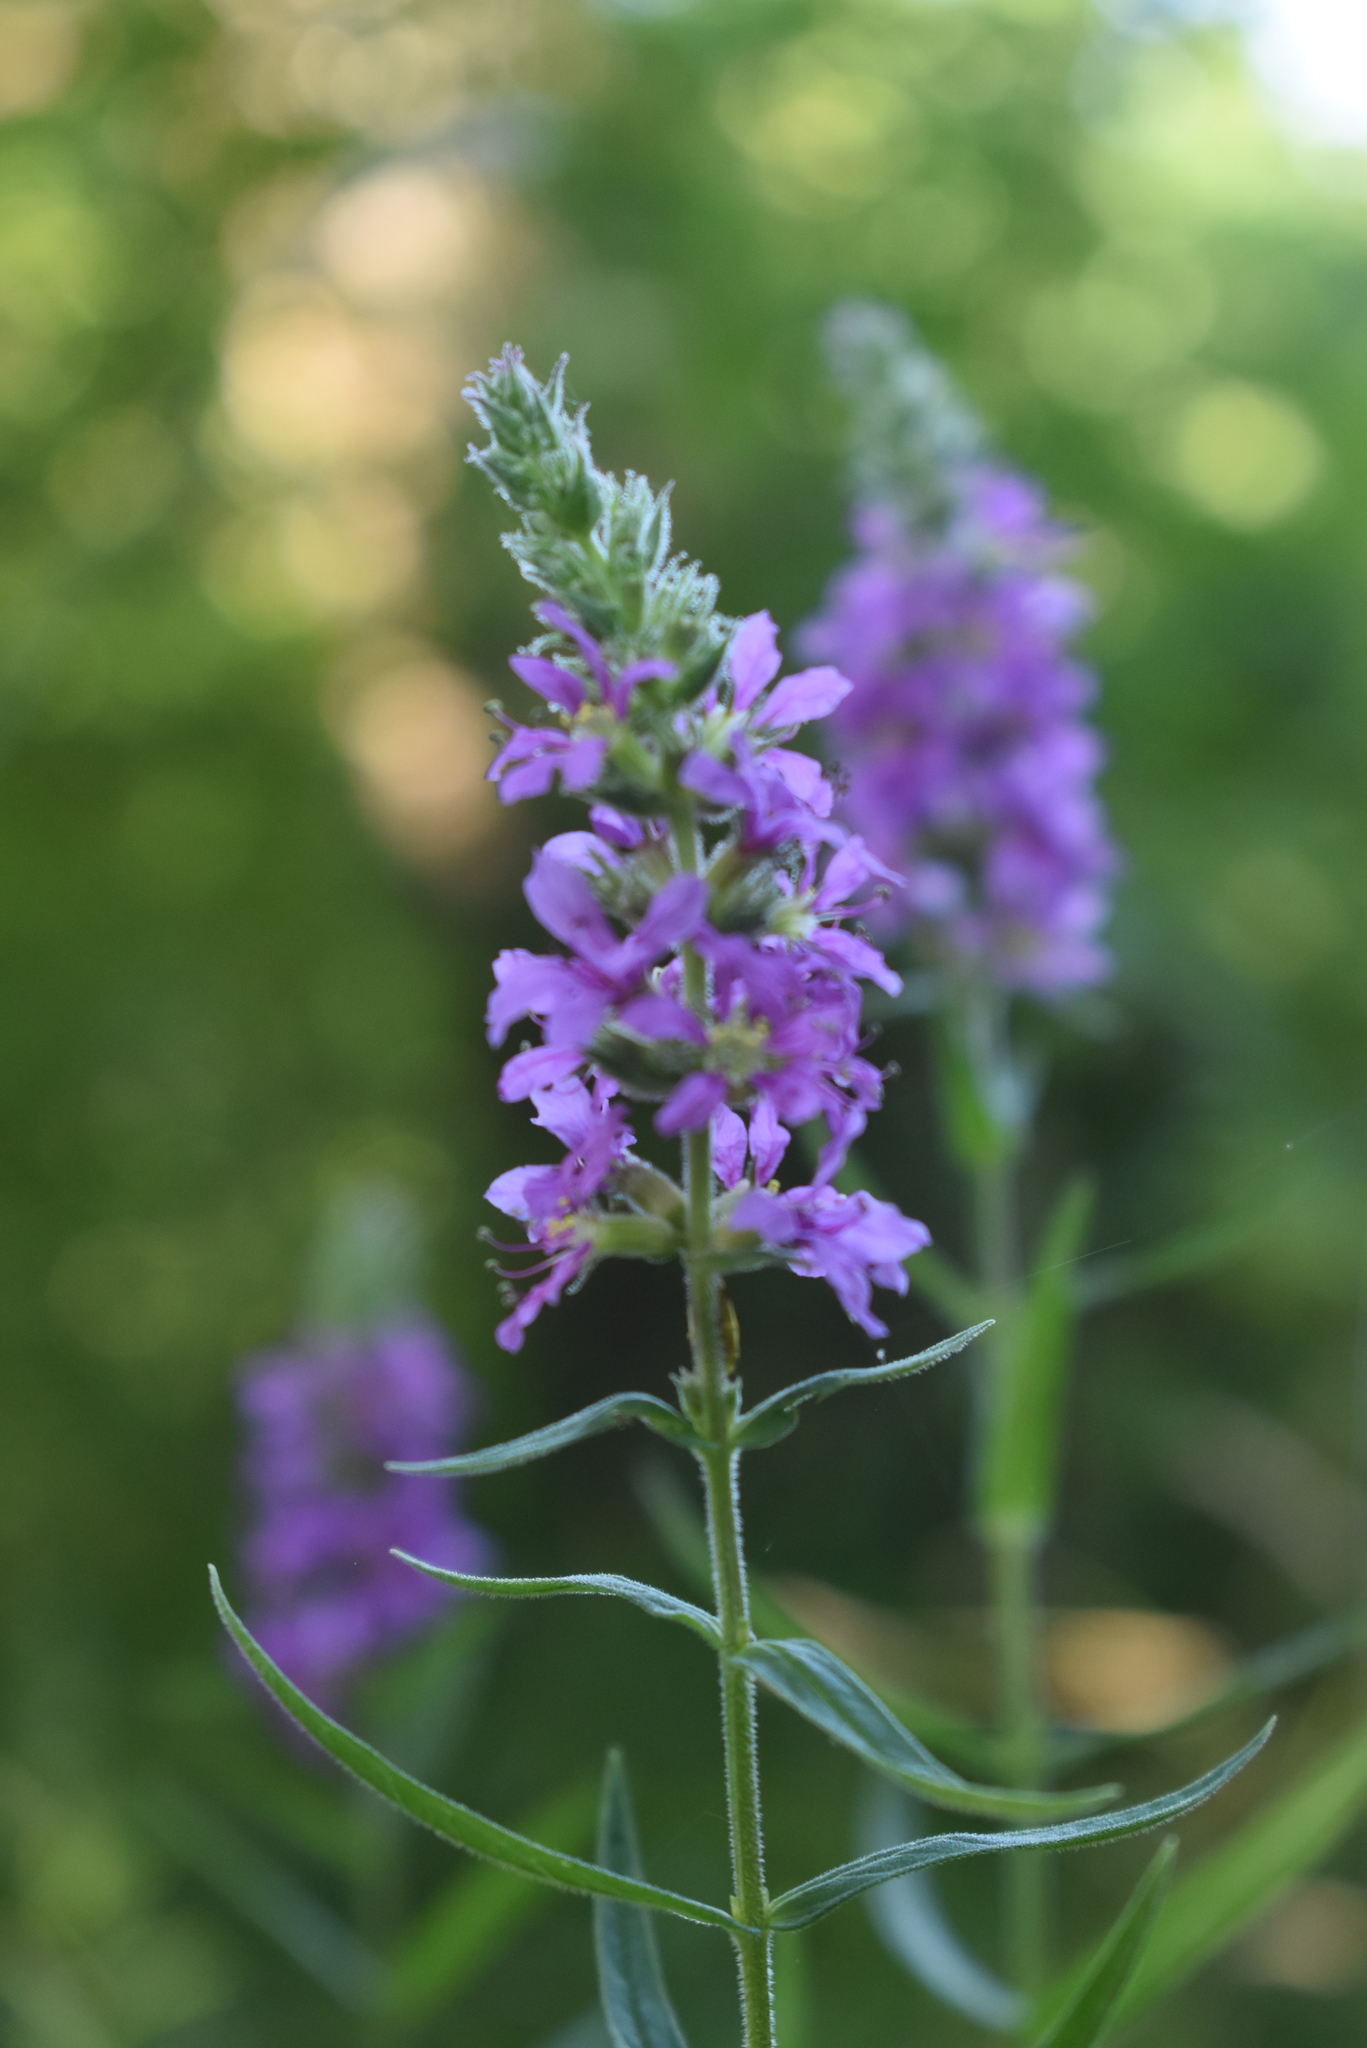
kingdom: Plantae
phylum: Tracheophyta
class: Magnoliopsida
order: Myrtales
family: Lythraceae
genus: Lythrum
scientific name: Lythrum salicaria
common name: Purple loosestrife
